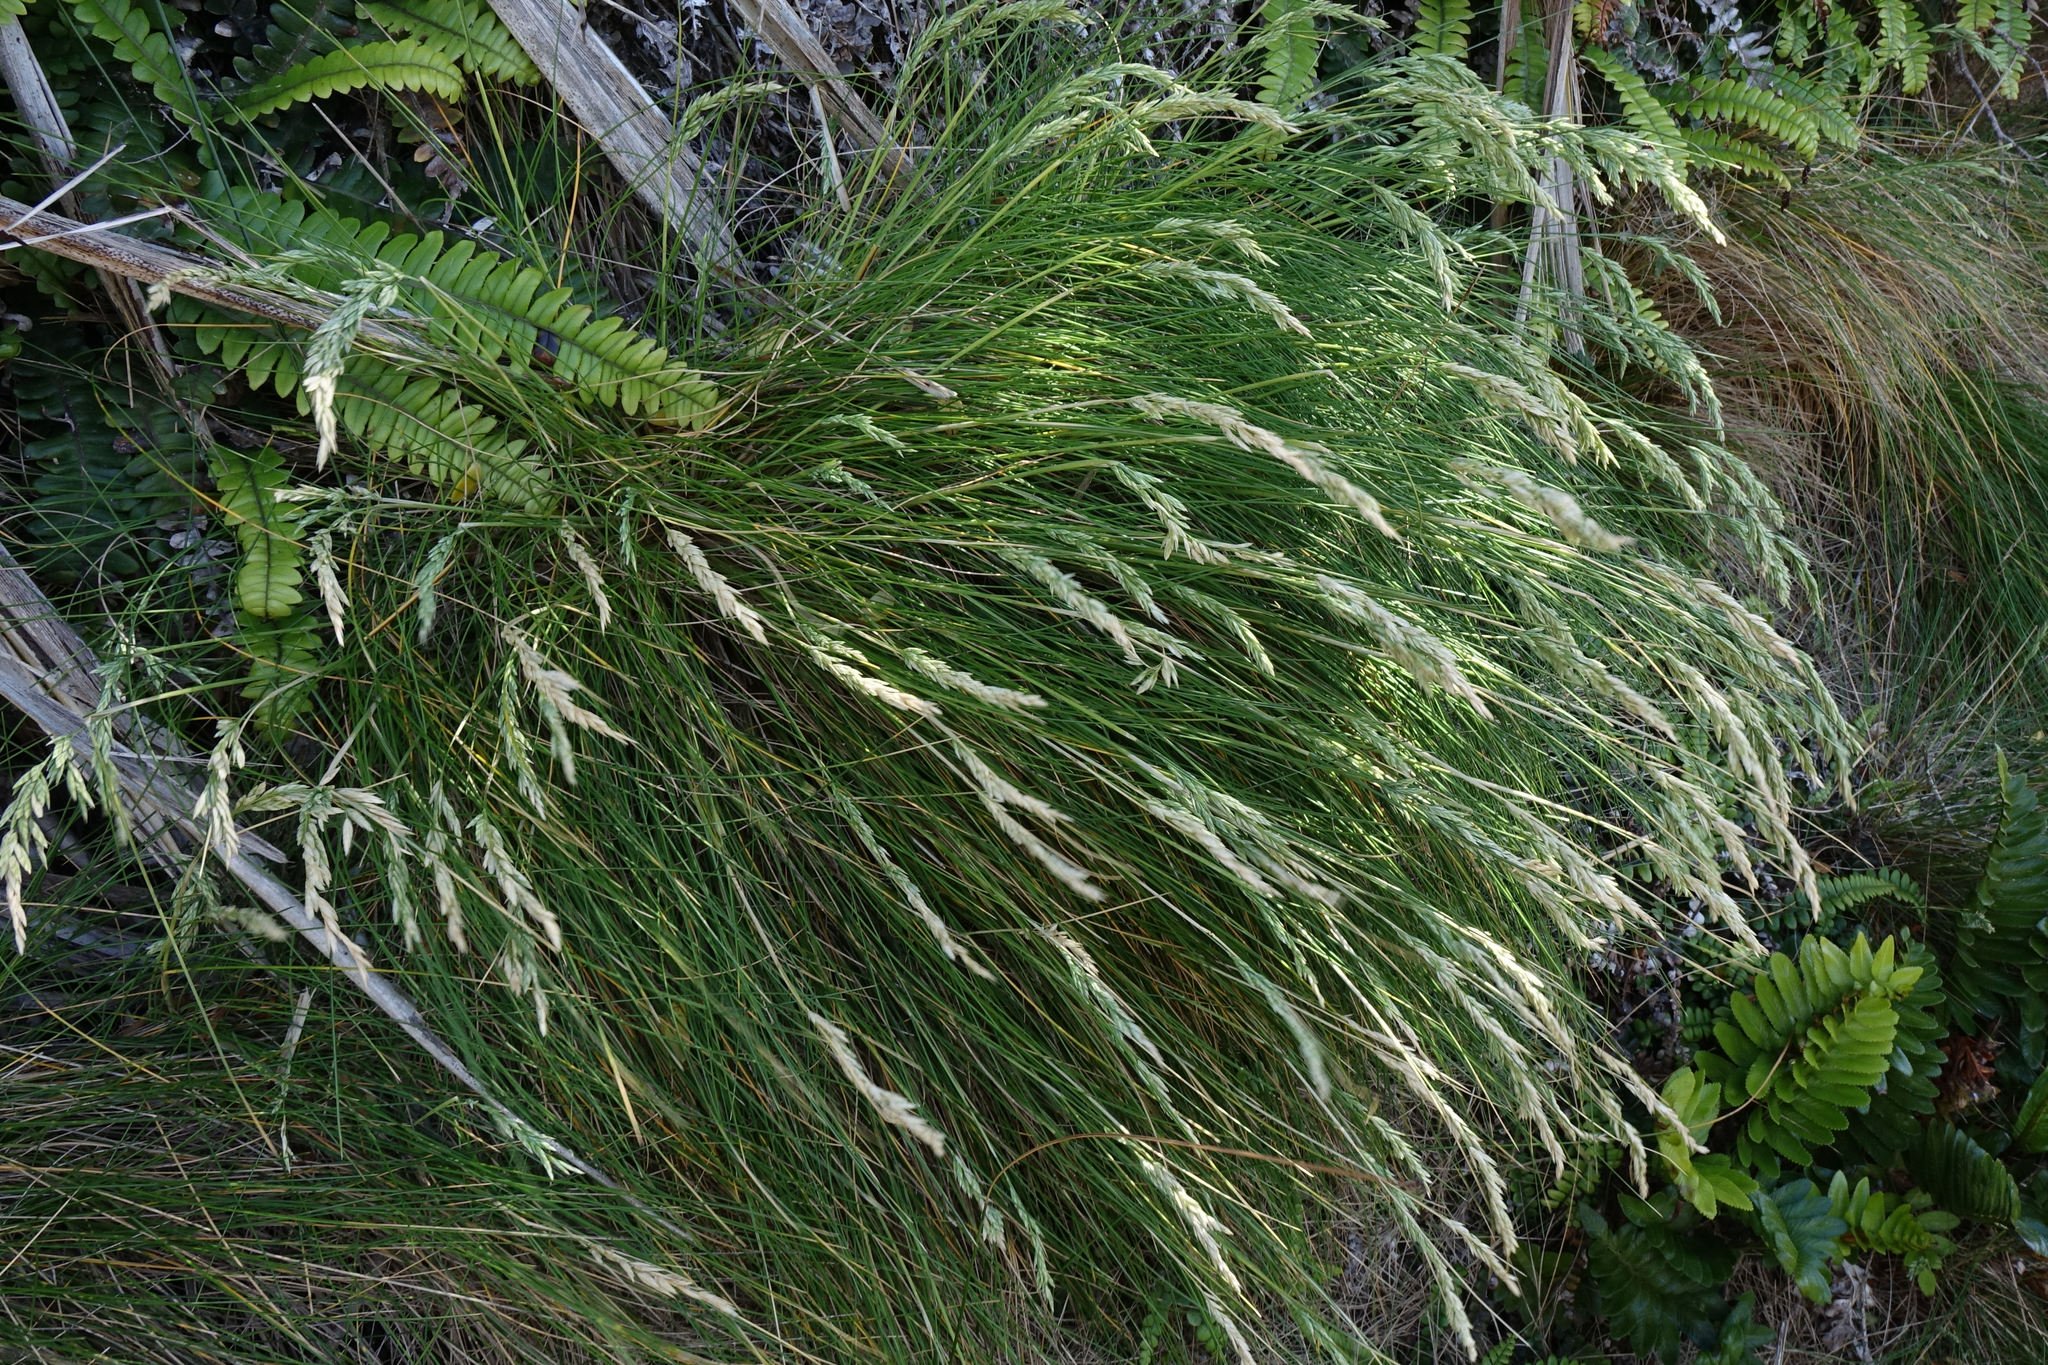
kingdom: Plantae
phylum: Tracheophyta
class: Liliopsida
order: Poales
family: Poaceae
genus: Poa
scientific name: Poa astonii
